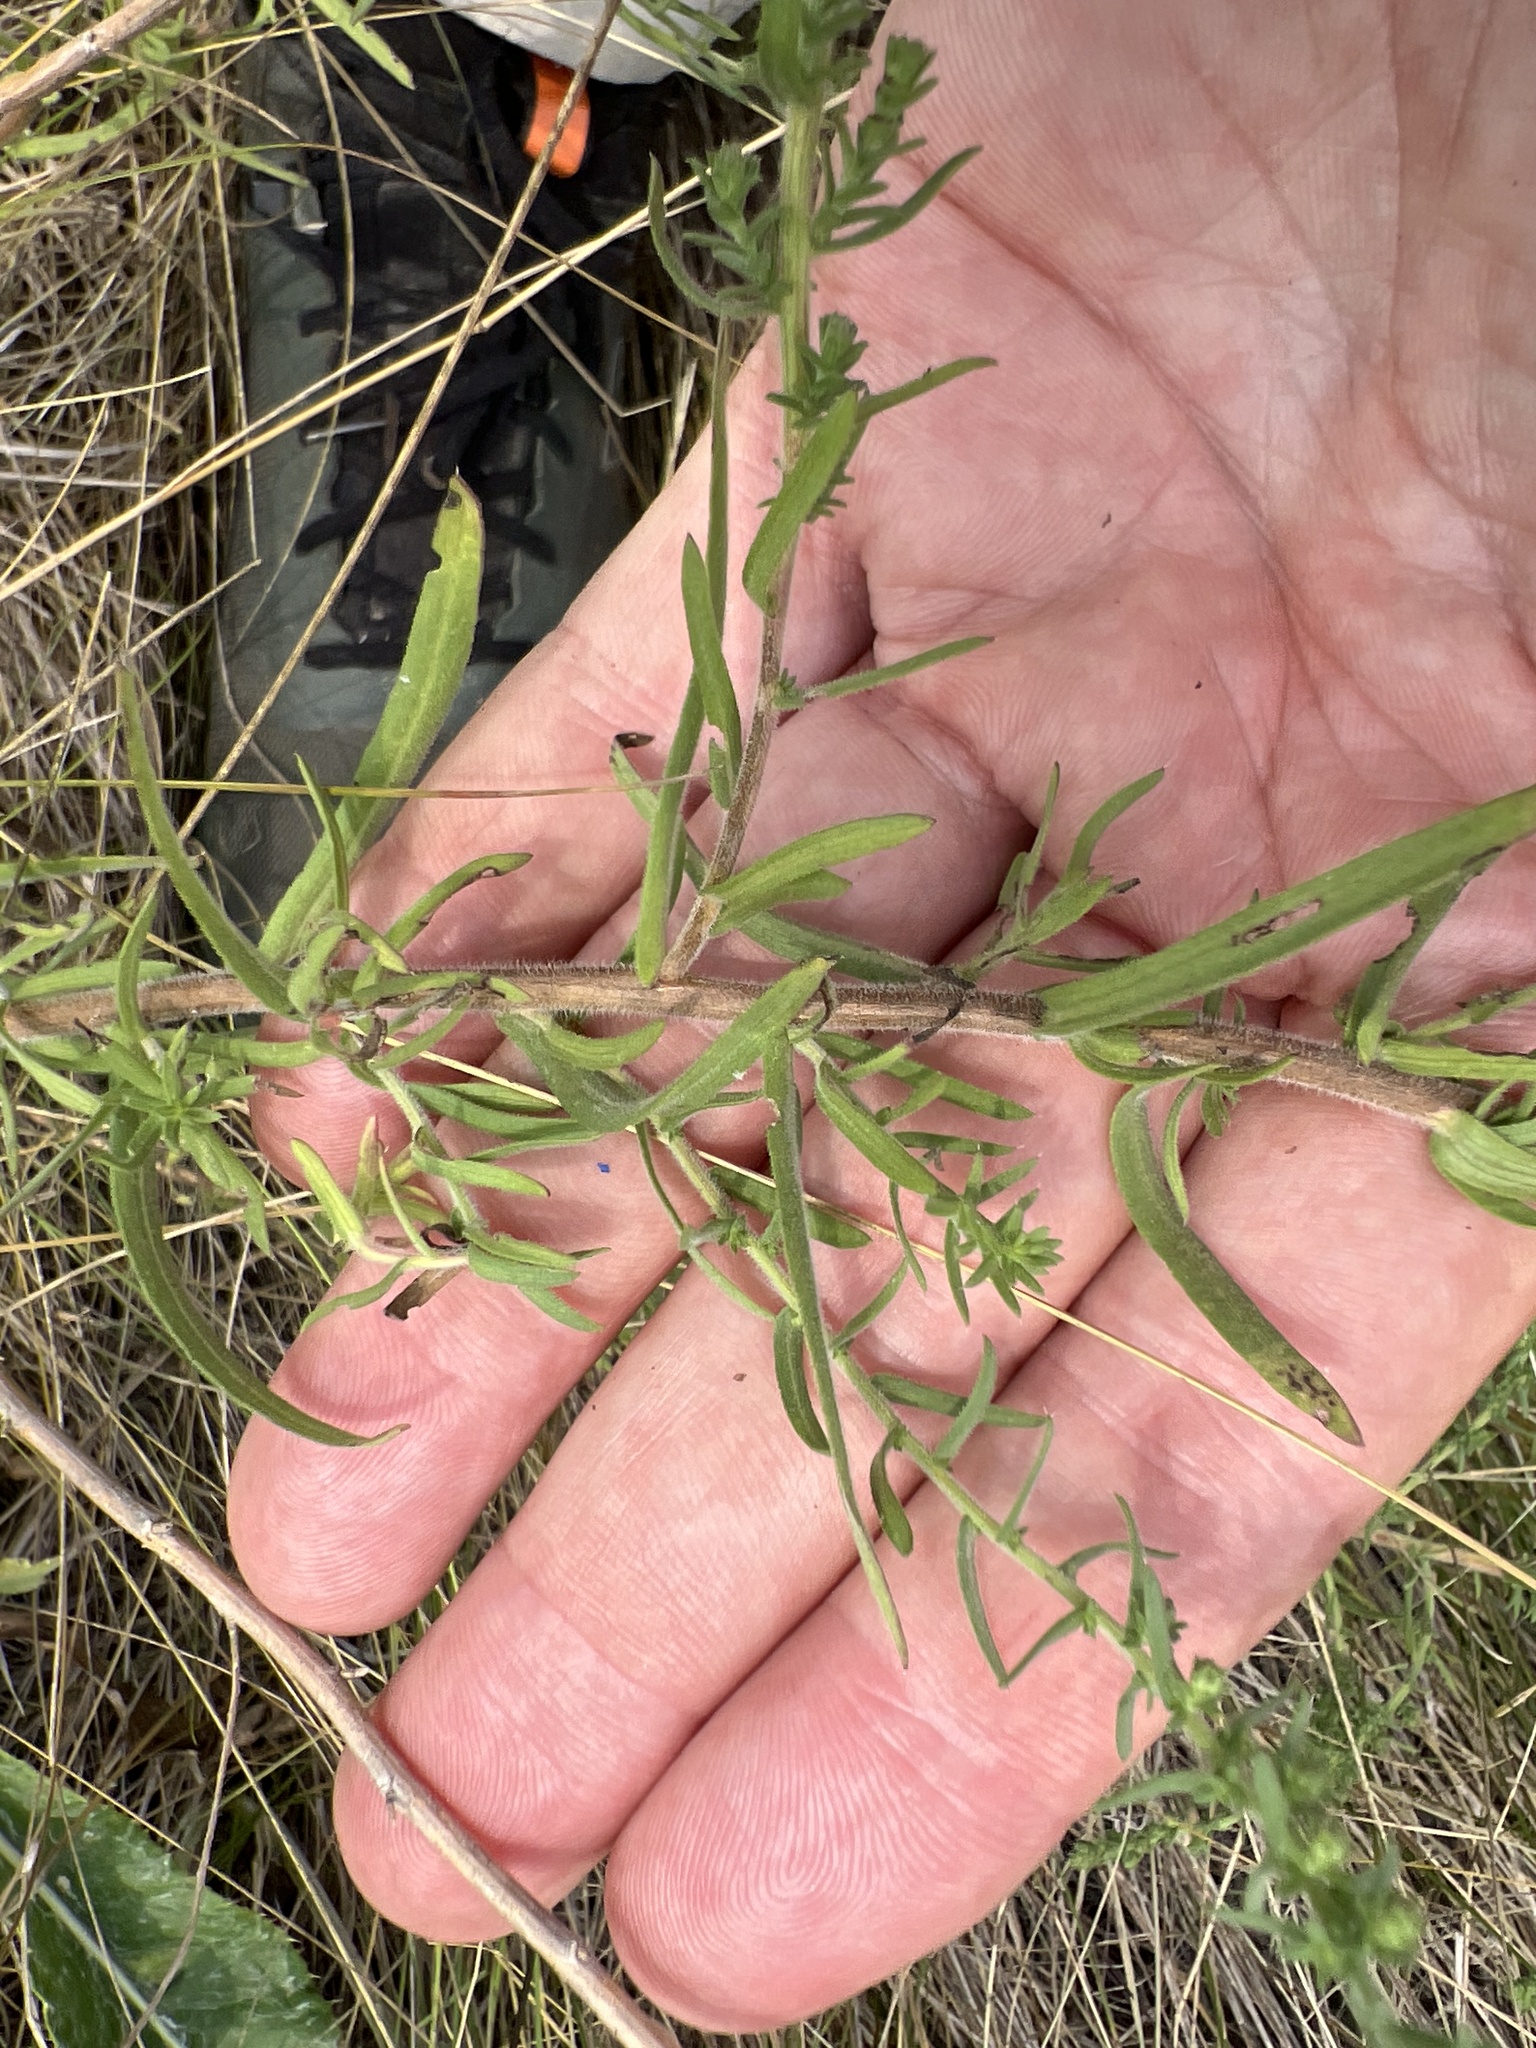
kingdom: Plantae
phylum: Tracheophyta
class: Magnoliopsida
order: Asterales
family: Asteraceae
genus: Symphyotrichum
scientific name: Symphyotrichum ericoides
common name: Heath aster
